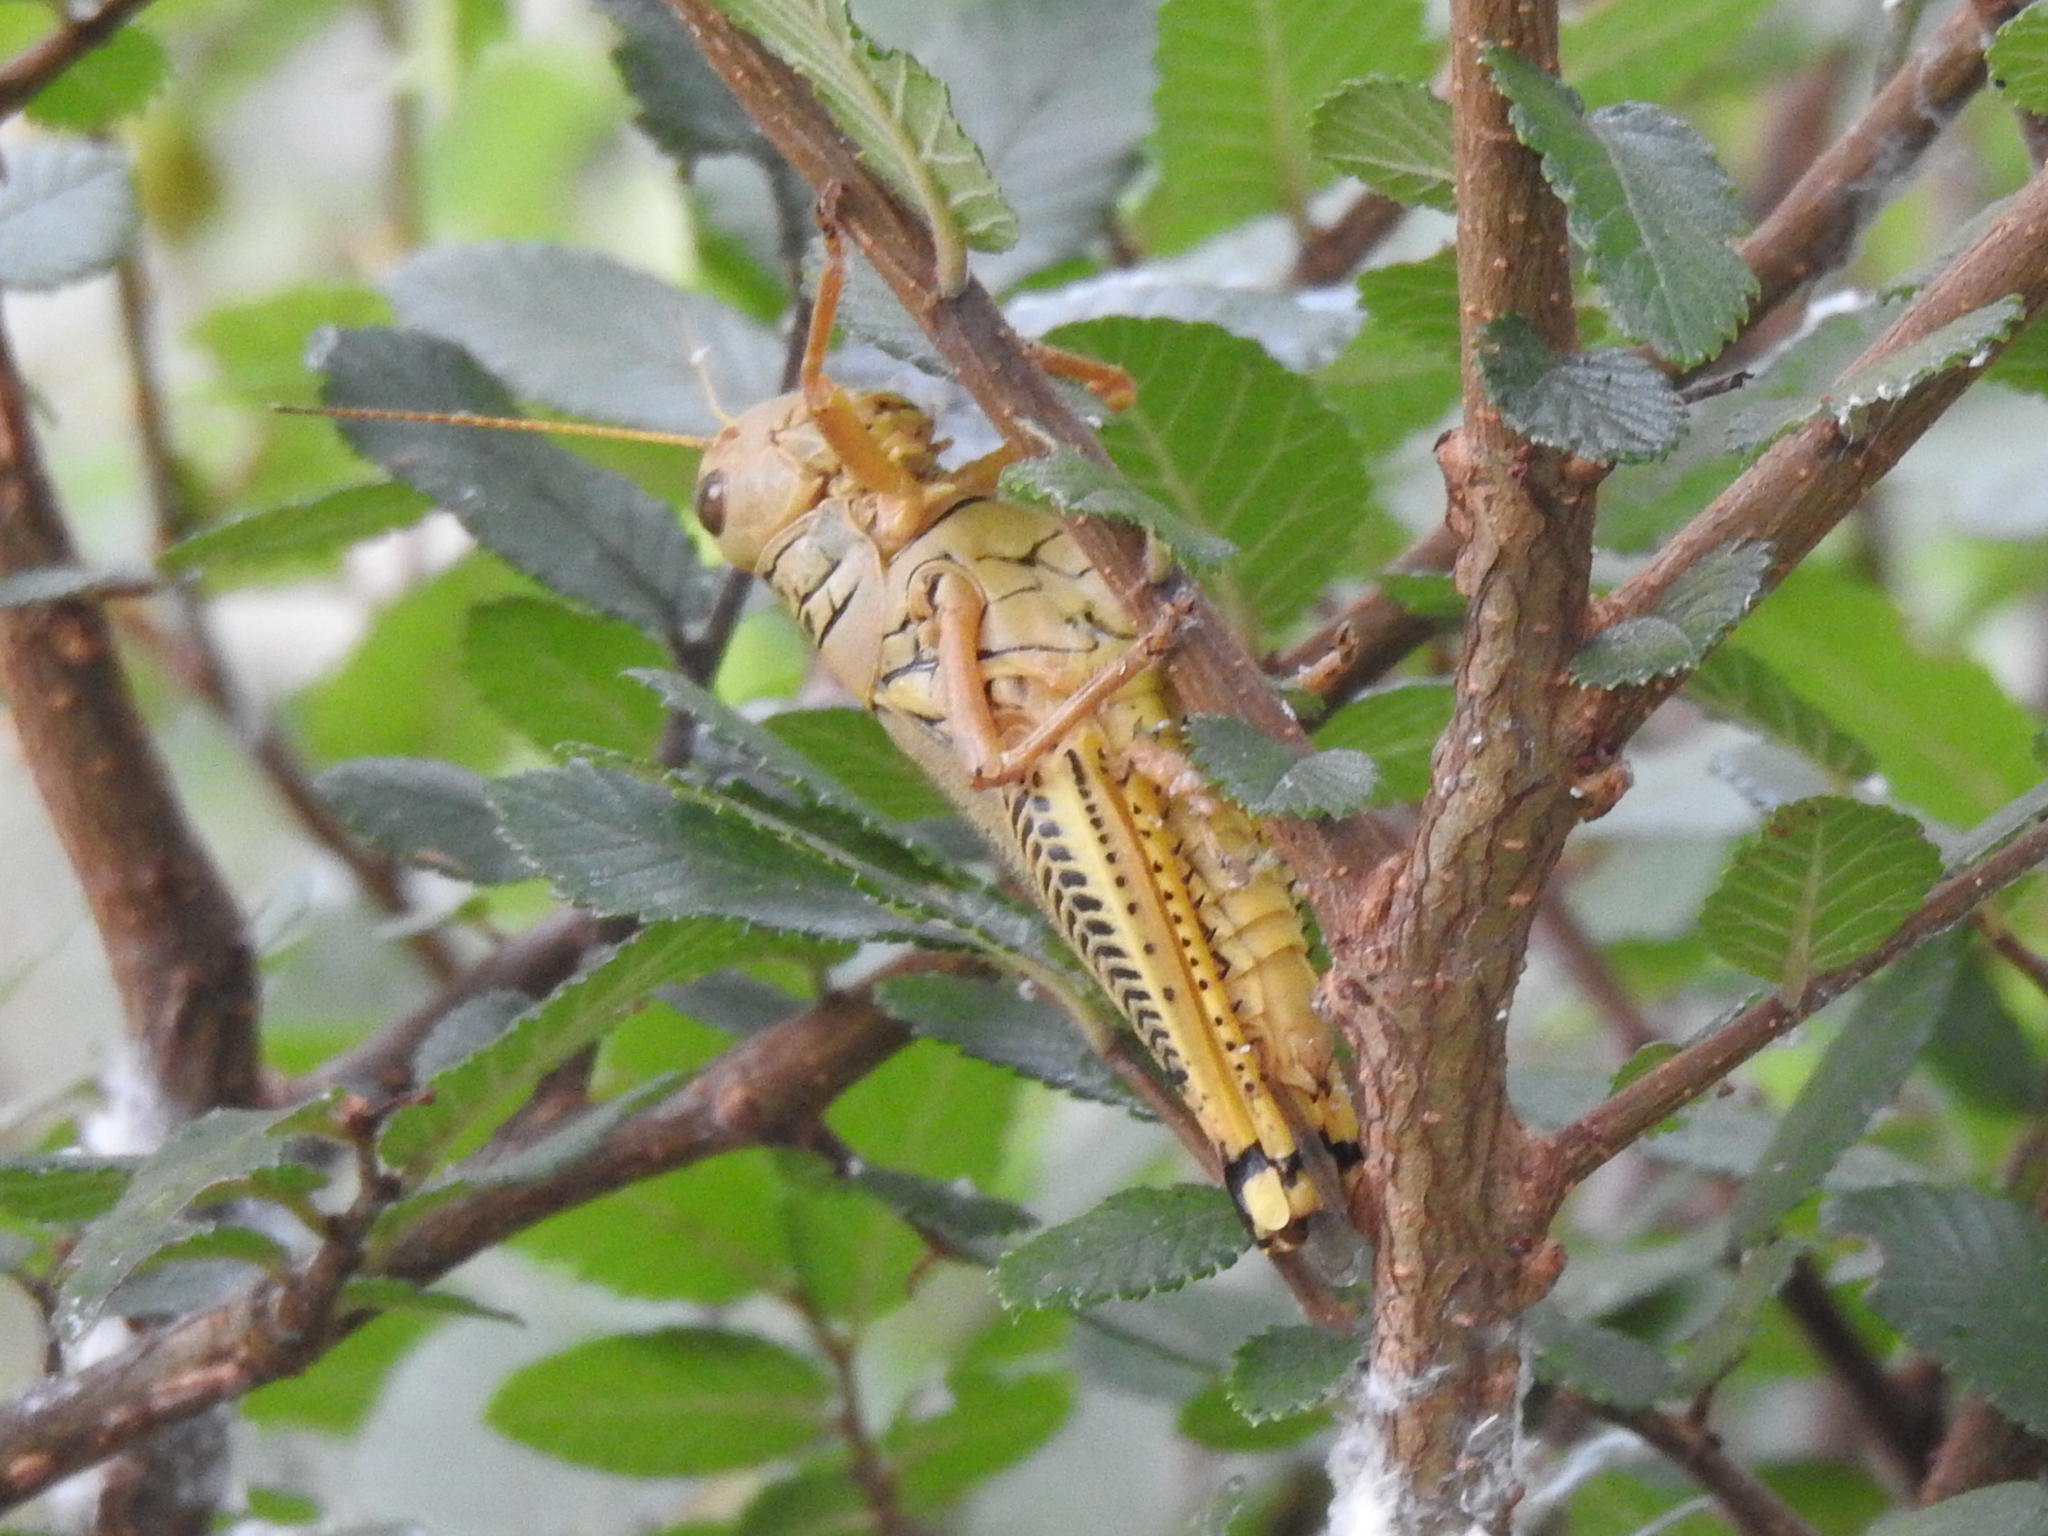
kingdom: Animalia
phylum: Arthropoda
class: Insecta
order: Orthoptera
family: Acrididae
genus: Melanoplus
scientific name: Melanoplus differentialis
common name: Differential grasshopper
